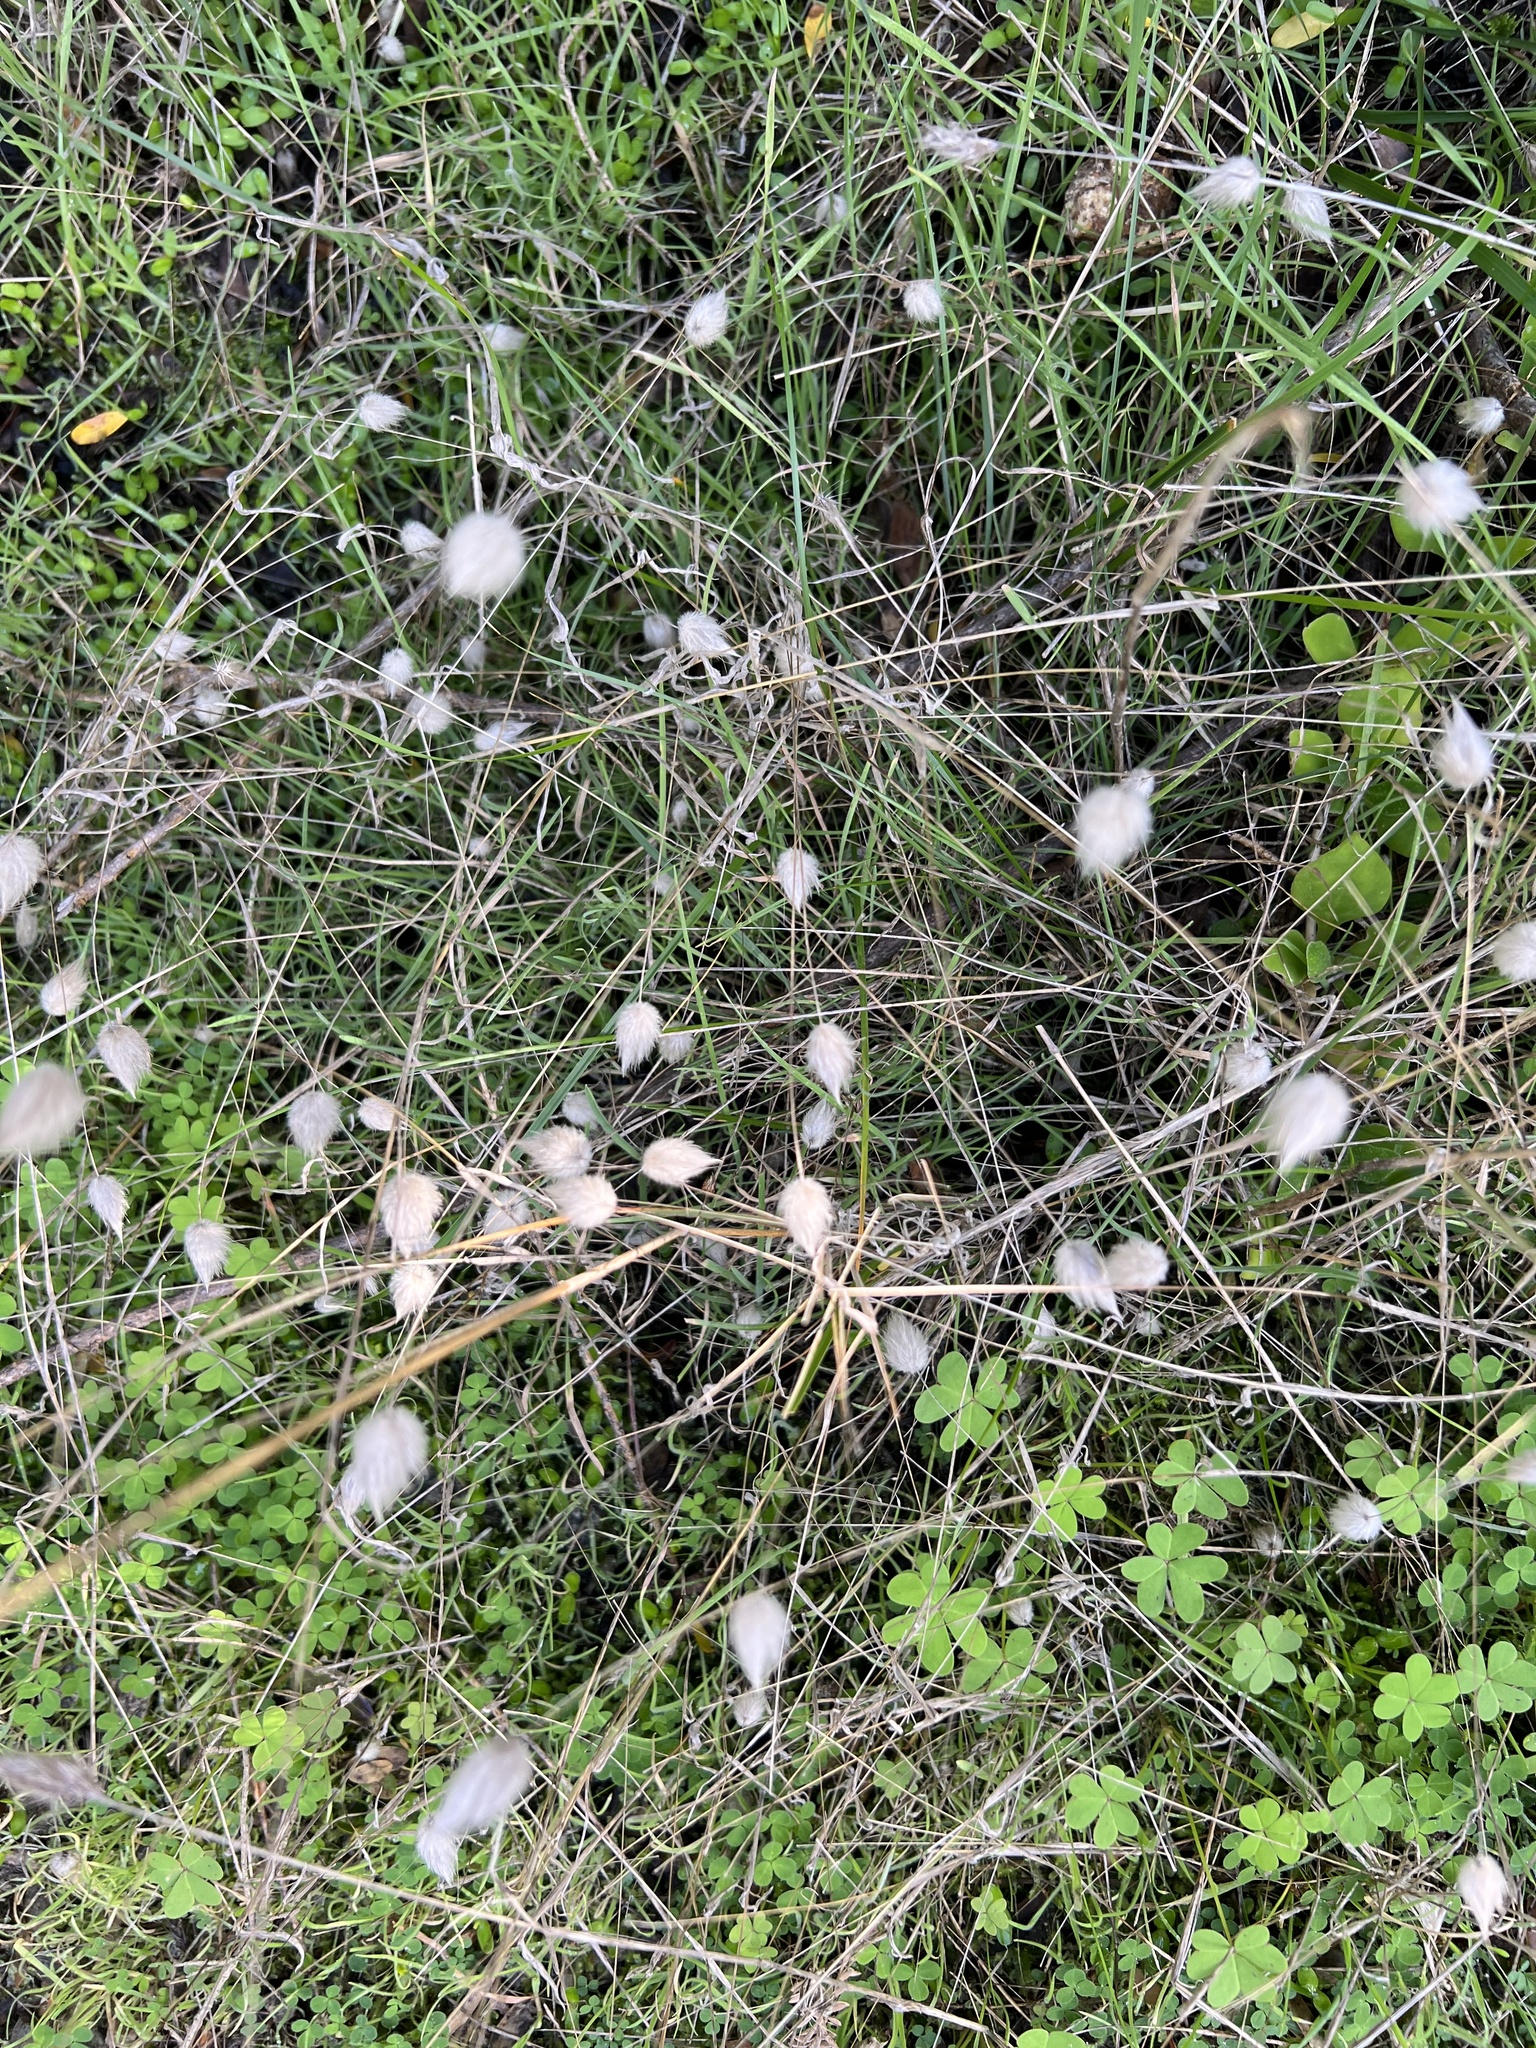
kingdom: Plantae
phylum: Tracheophyta
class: Liliopsida
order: Poales
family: Poaceae
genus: Lagurus
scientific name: Lagurus ovatus
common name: Hare's-tail
